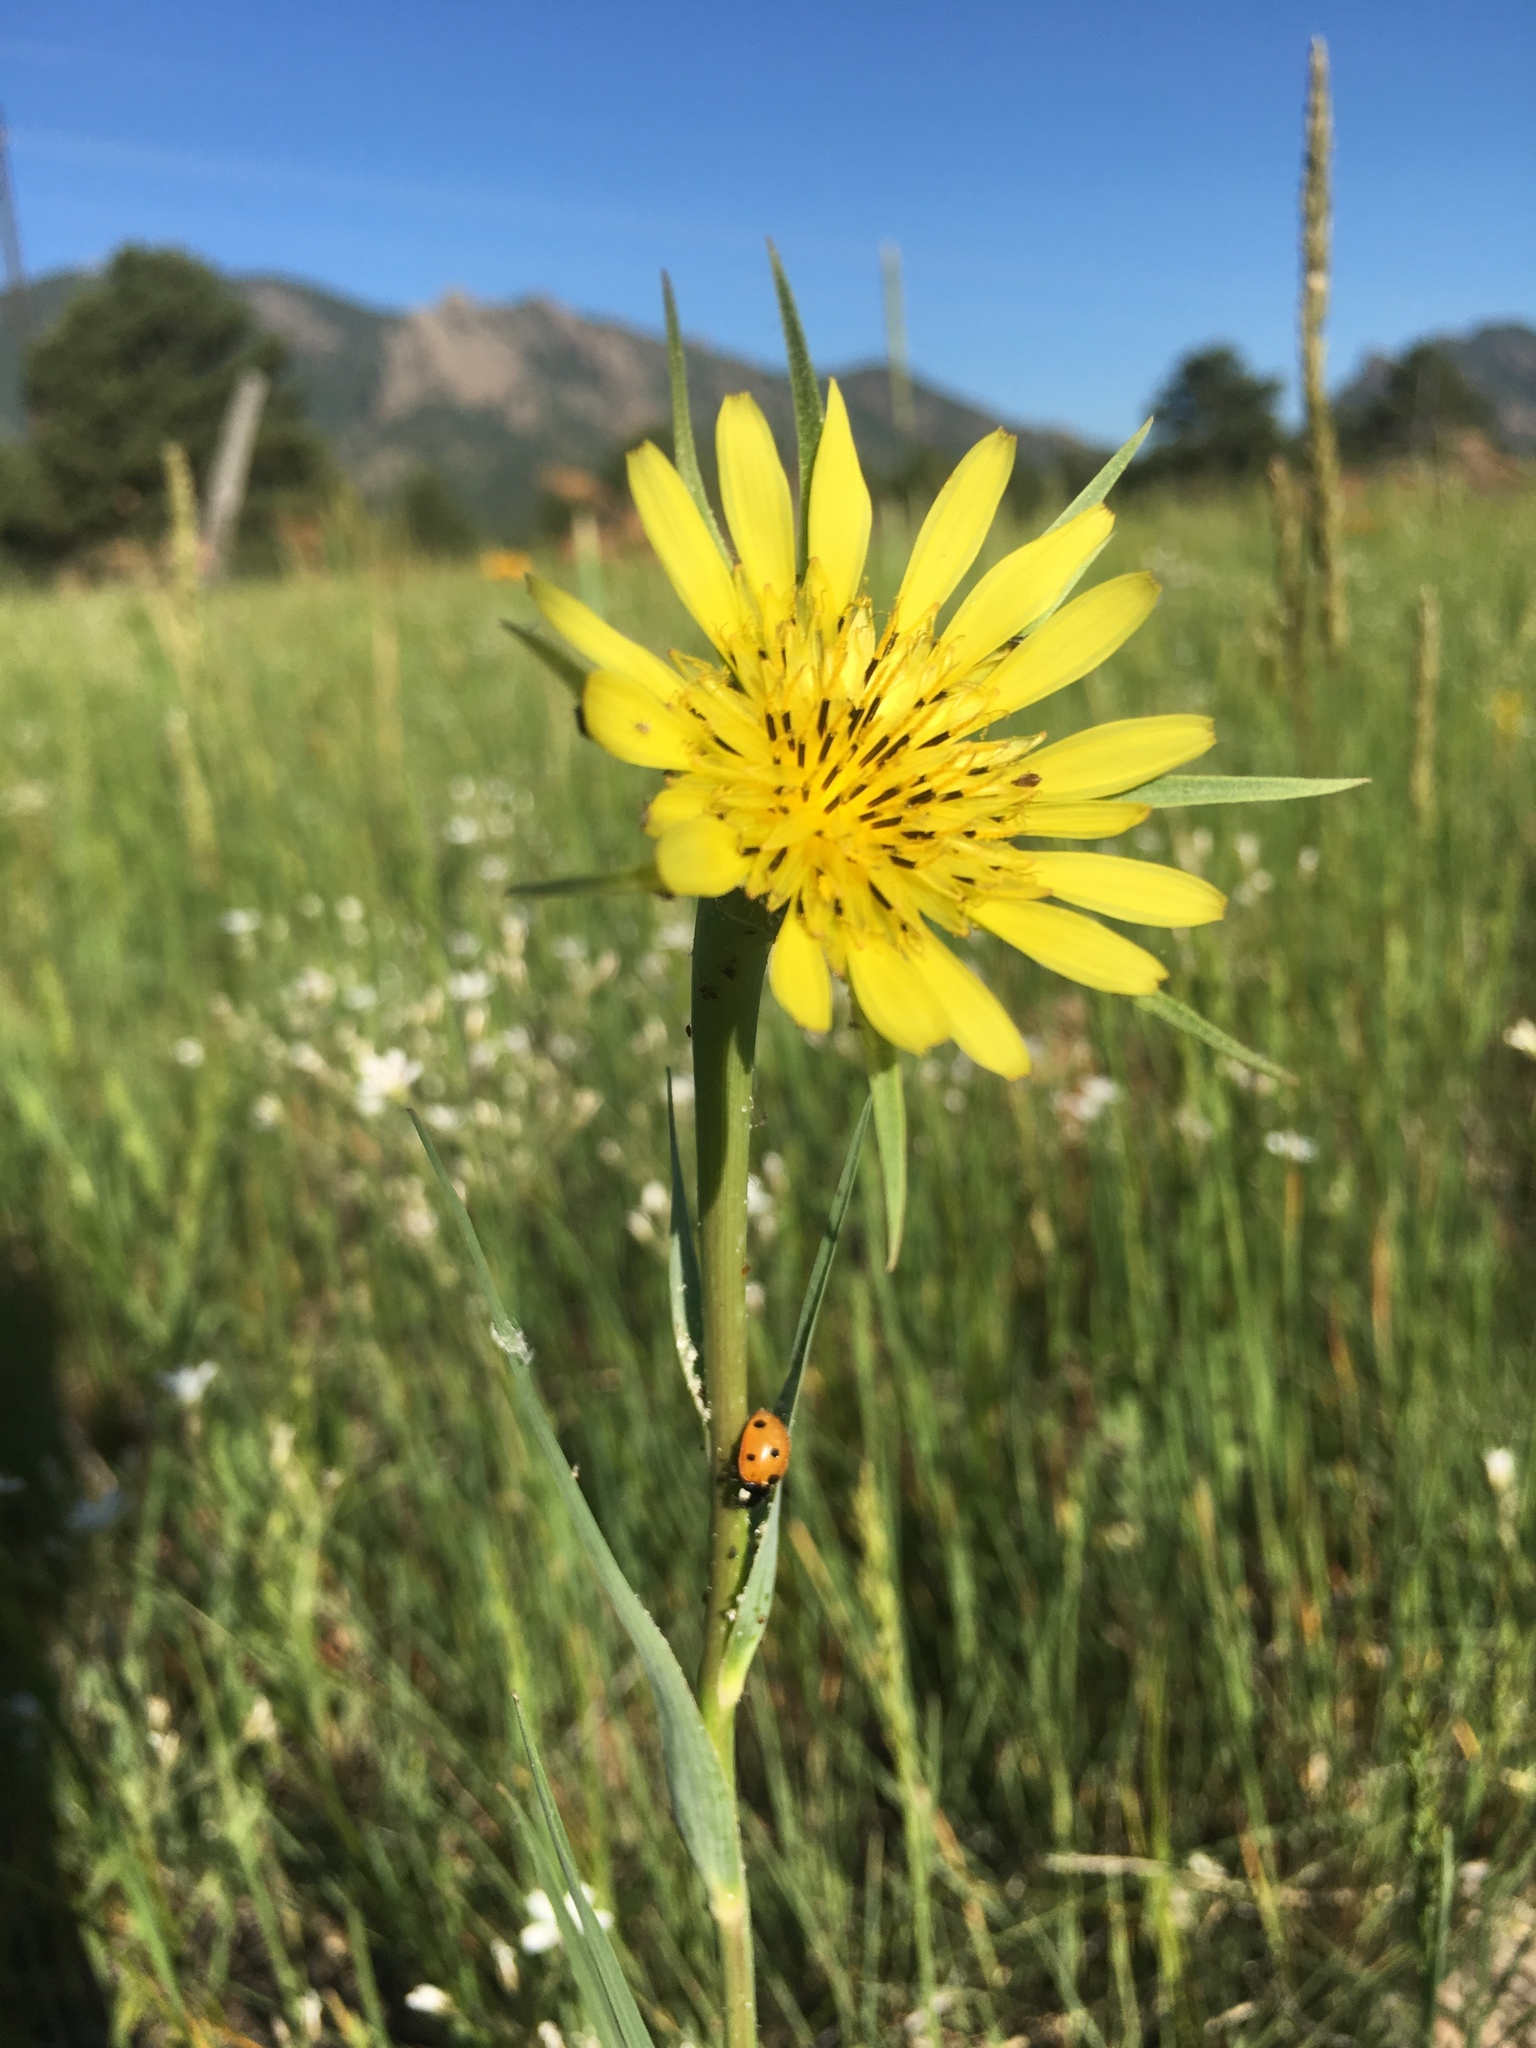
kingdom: Plantae
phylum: Tracheophyta
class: Magnoliopsida
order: Asterales
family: Asteraceae
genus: Tragopogon
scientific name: Tragopogon dubius
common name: Yellow salsify
